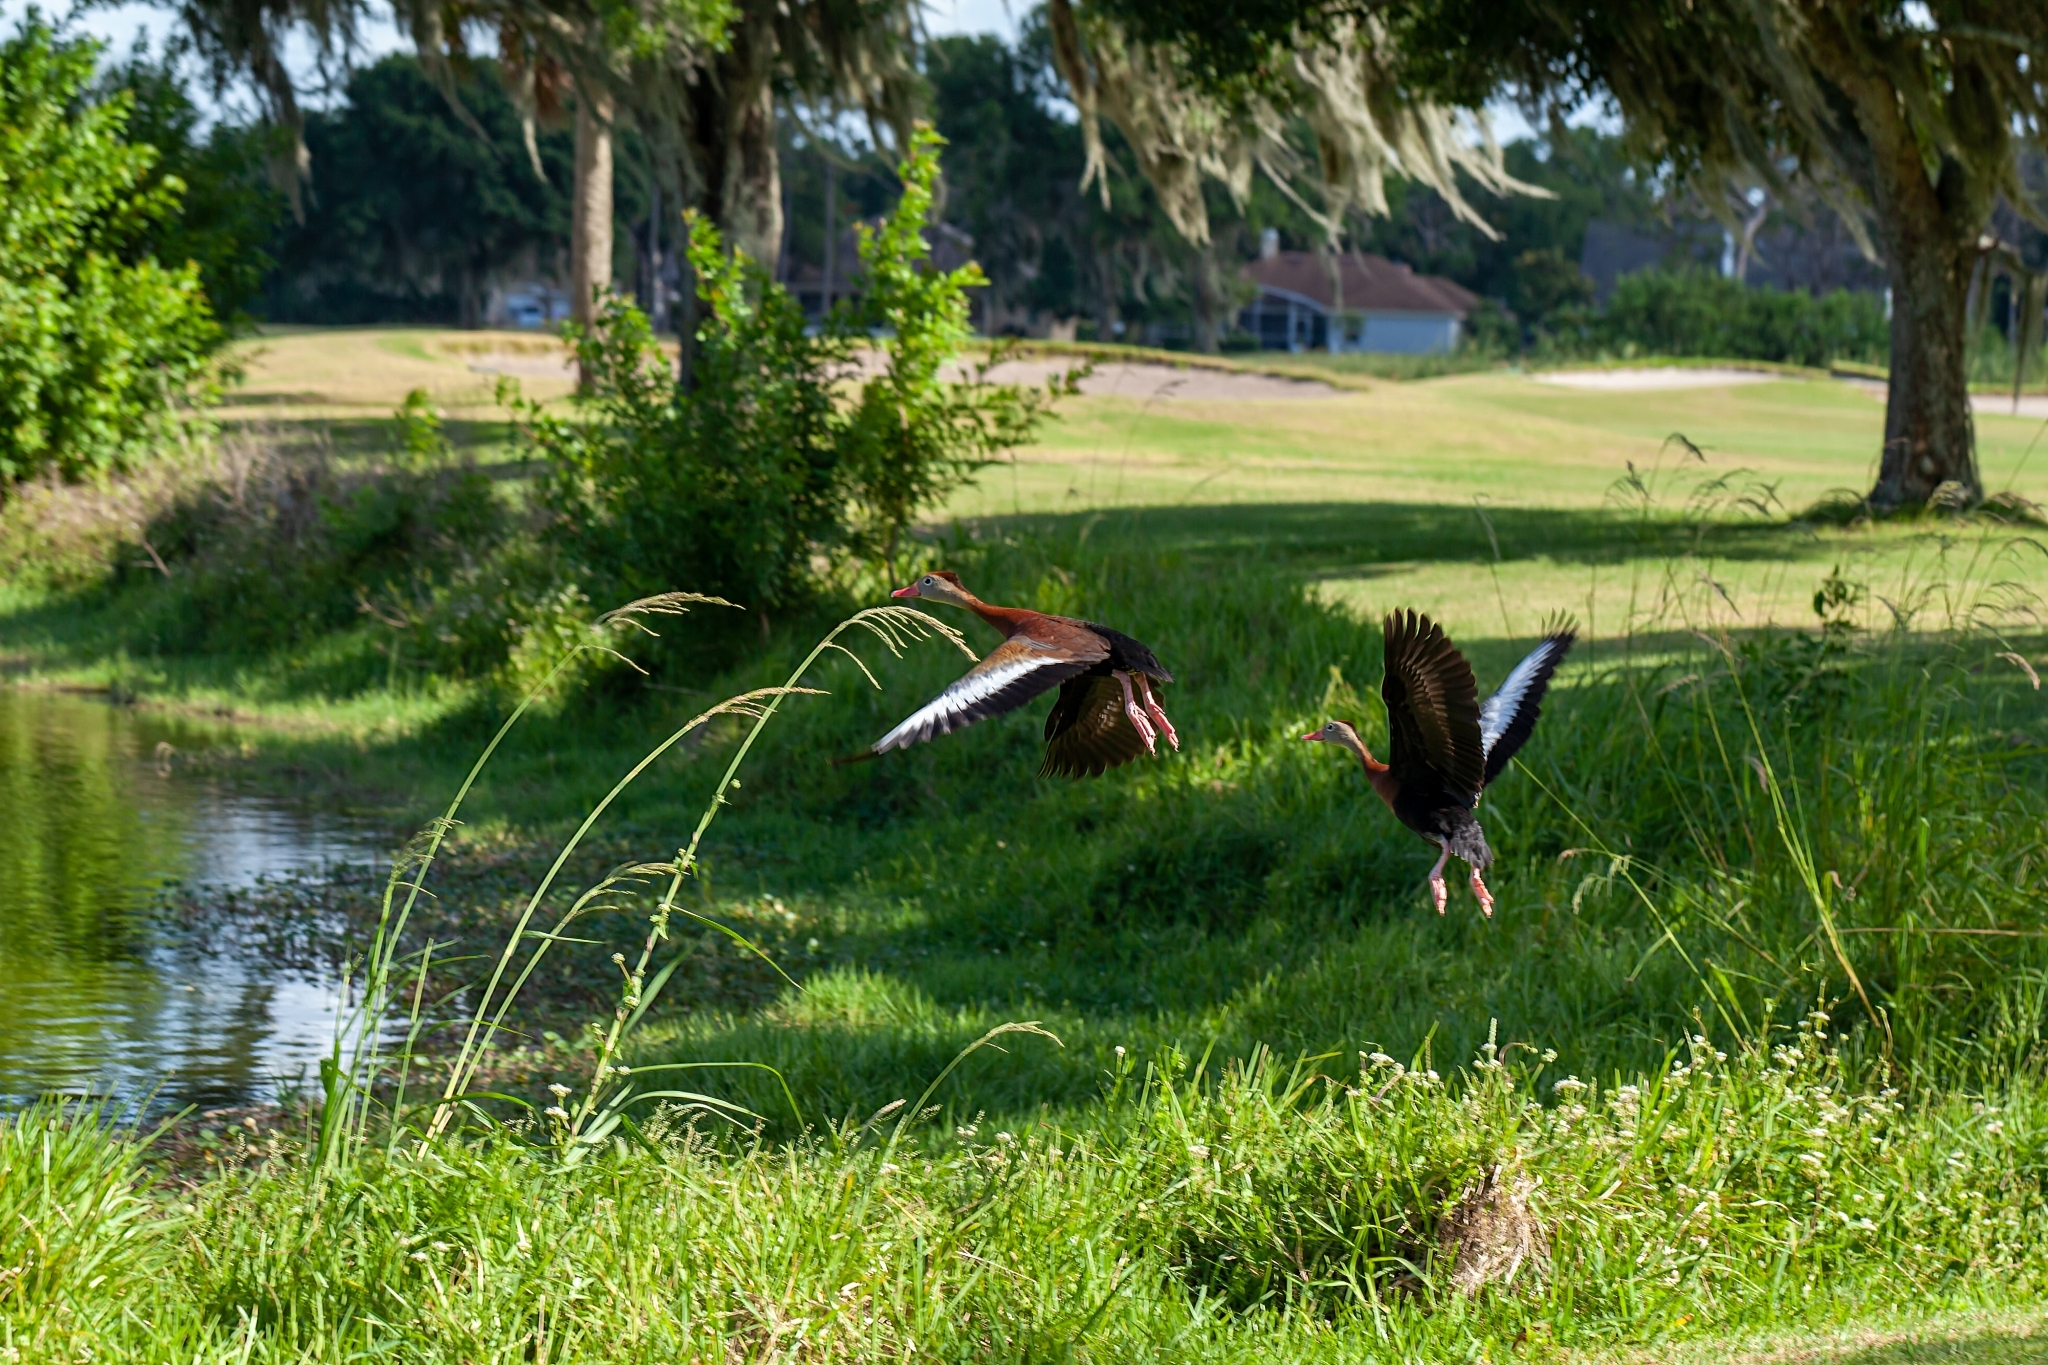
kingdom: Animalia
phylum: Chordata
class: Aves
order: Anseriformes
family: Anatidae
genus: Dendrocygna
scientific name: Dendrocygna autumnalis
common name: Black-bellied whistling duck
